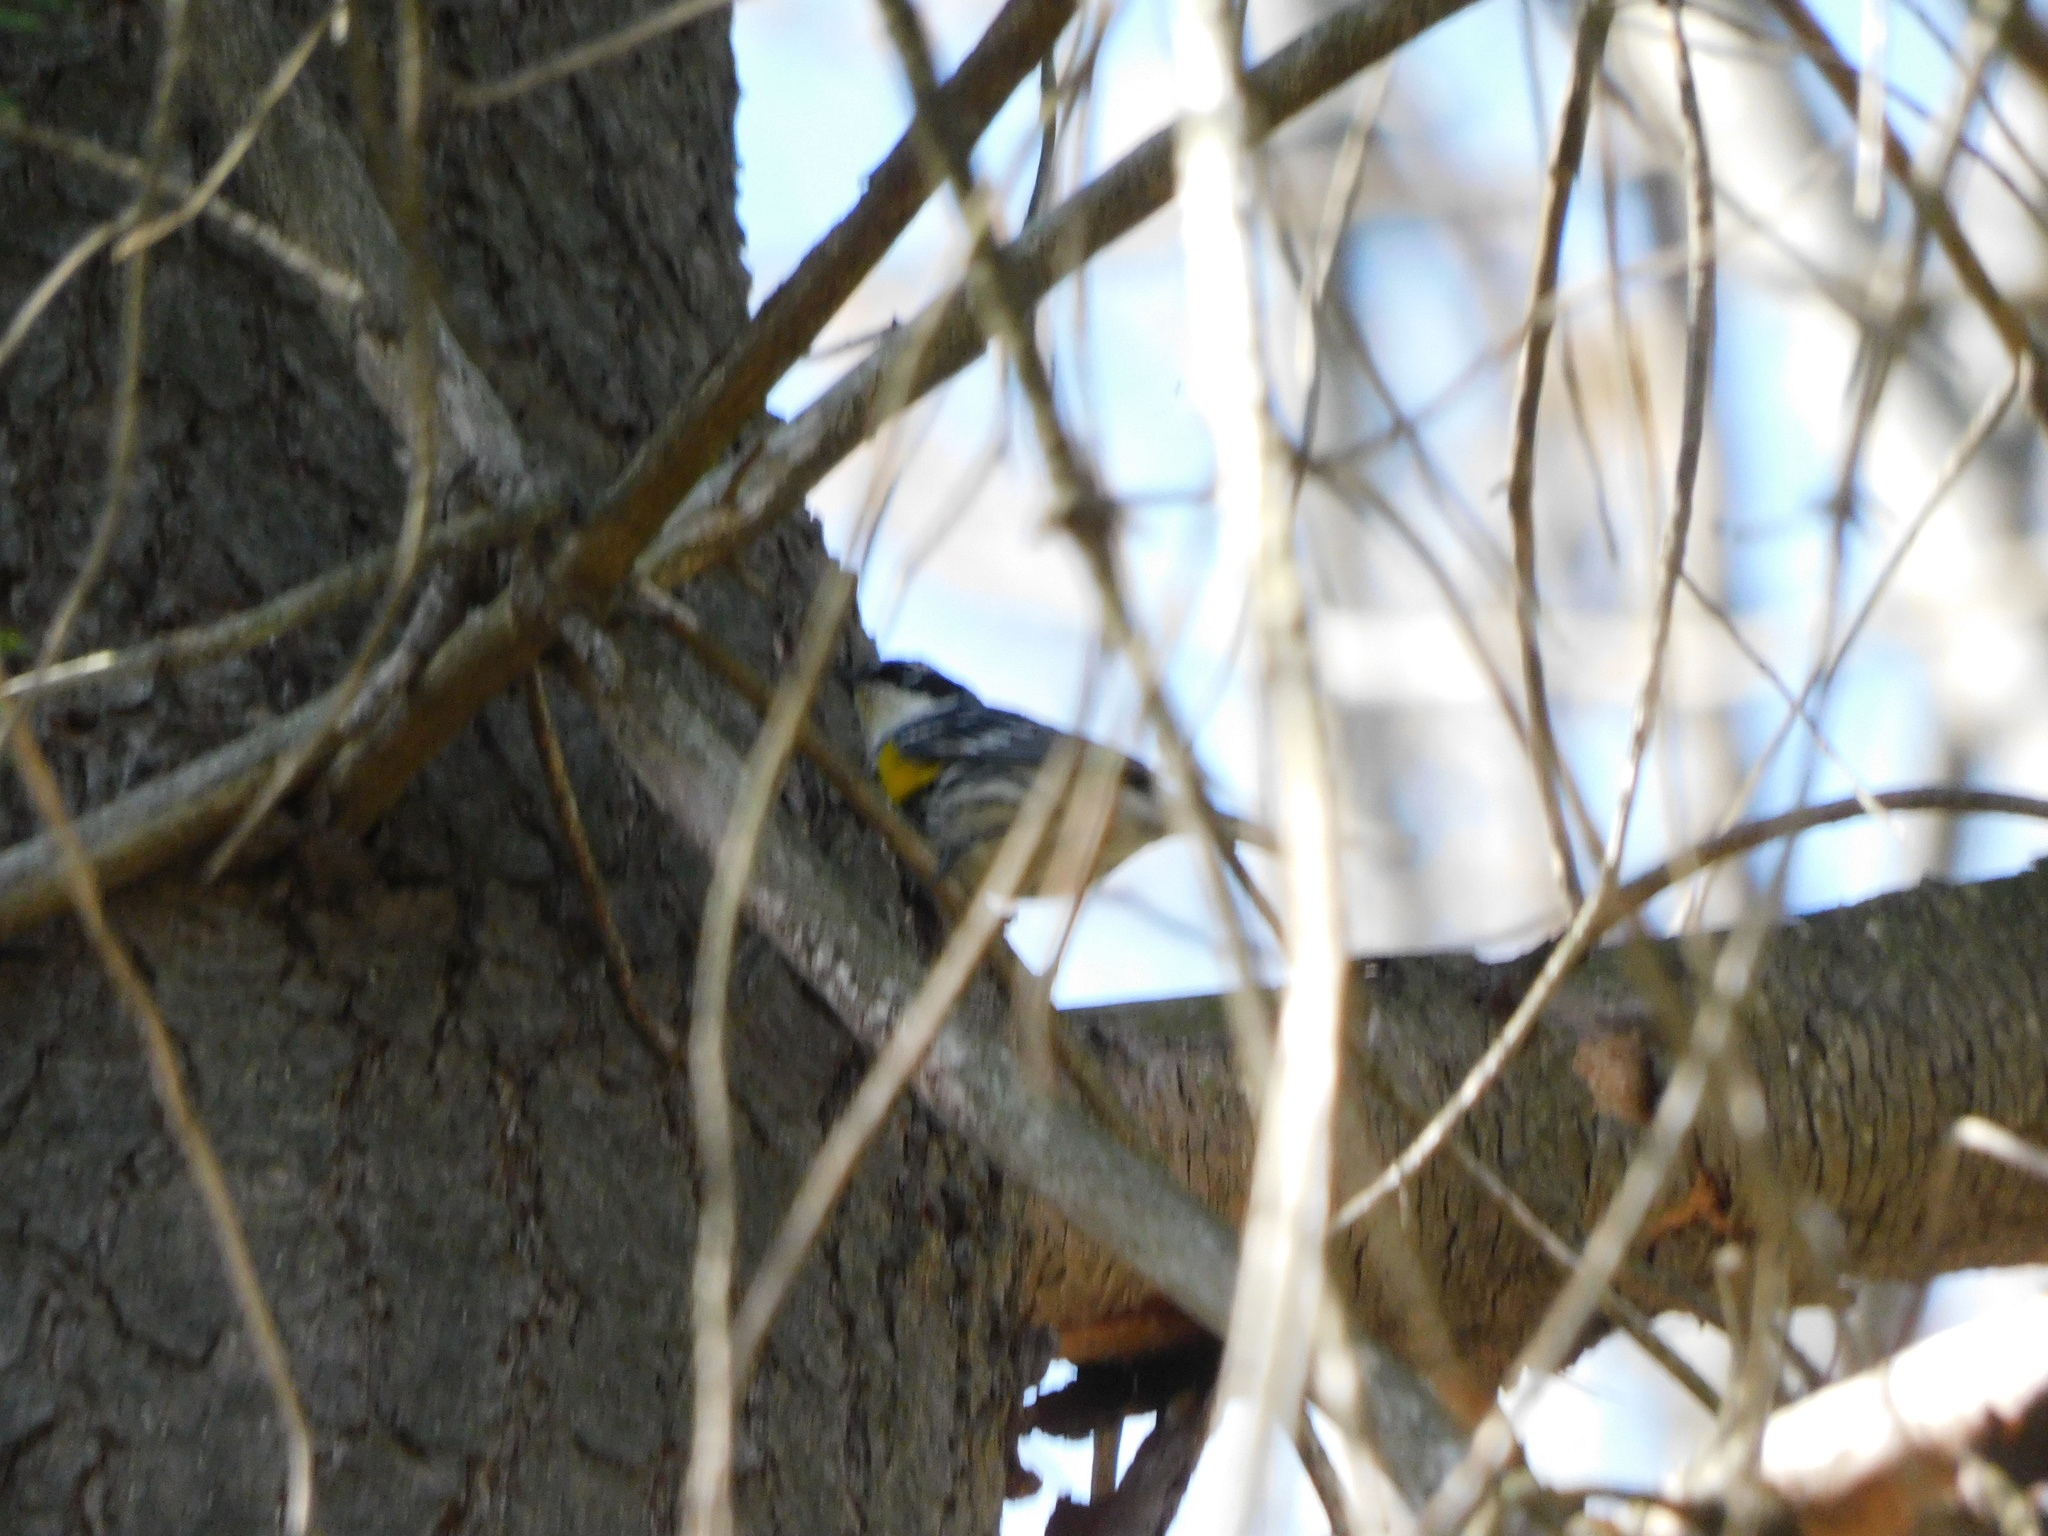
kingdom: Animalia
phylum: Chordata
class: Aves
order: Passeriformes
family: Parulidae
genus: Setophaga
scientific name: Setophaga coronata
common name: Myrtle warbler
